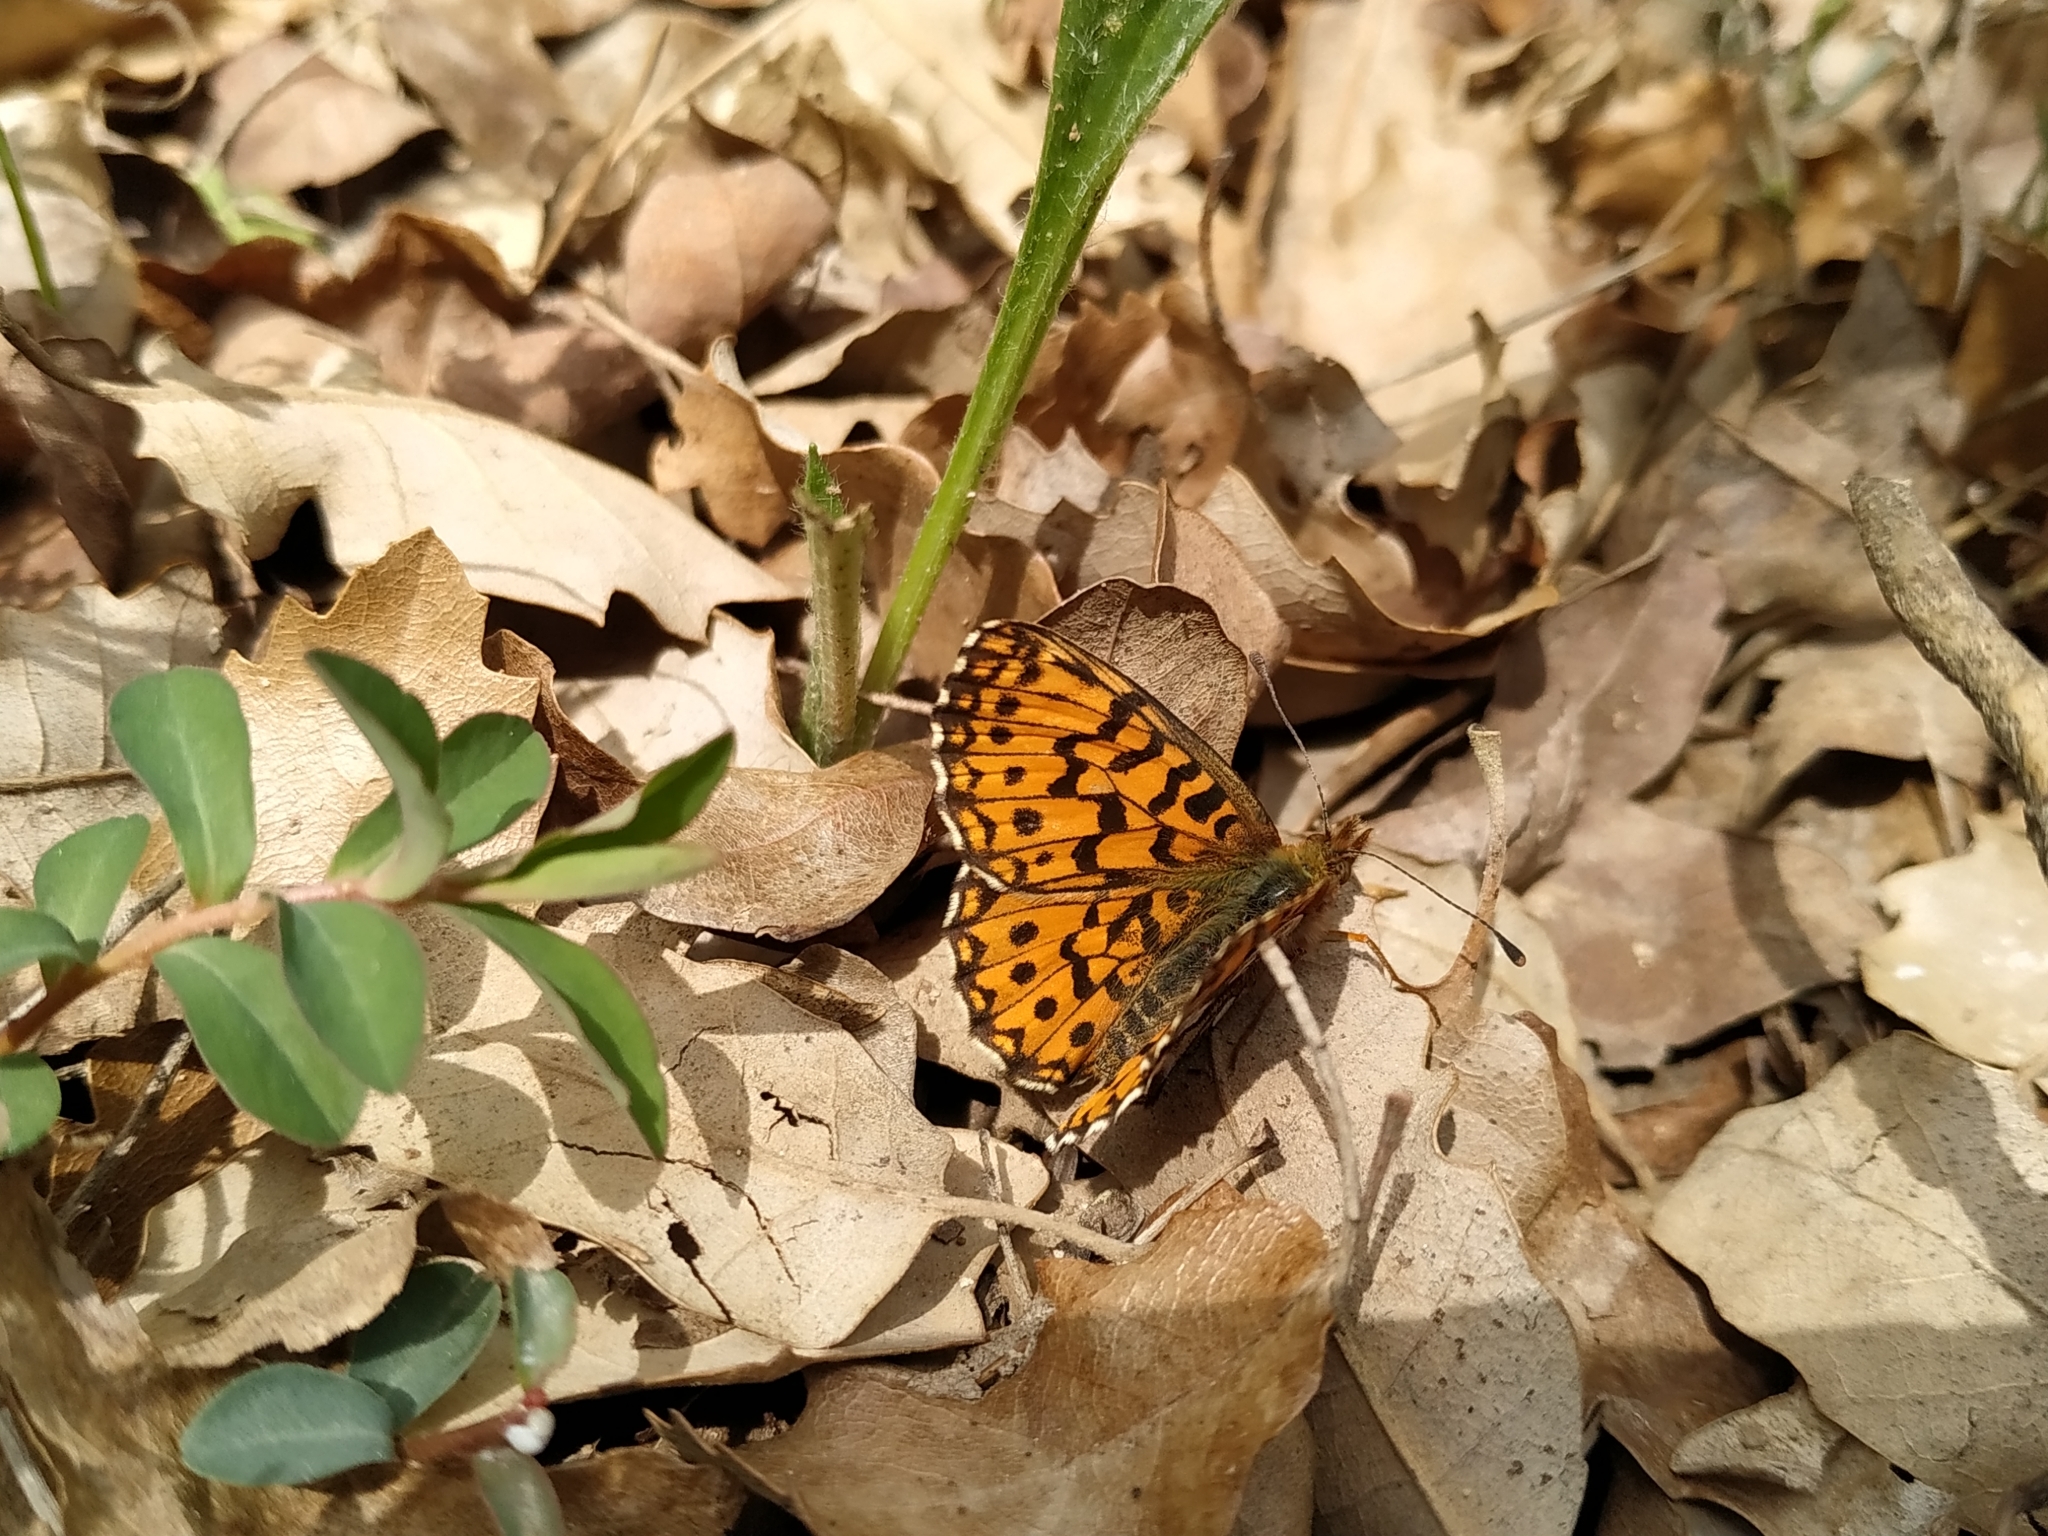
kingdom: Animalia
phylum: Arthropoda
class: Insecta
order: Lepidoptera
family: Nymphalidae
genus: Boloria
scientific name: Boloria dia
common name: Weaver's fritillary
